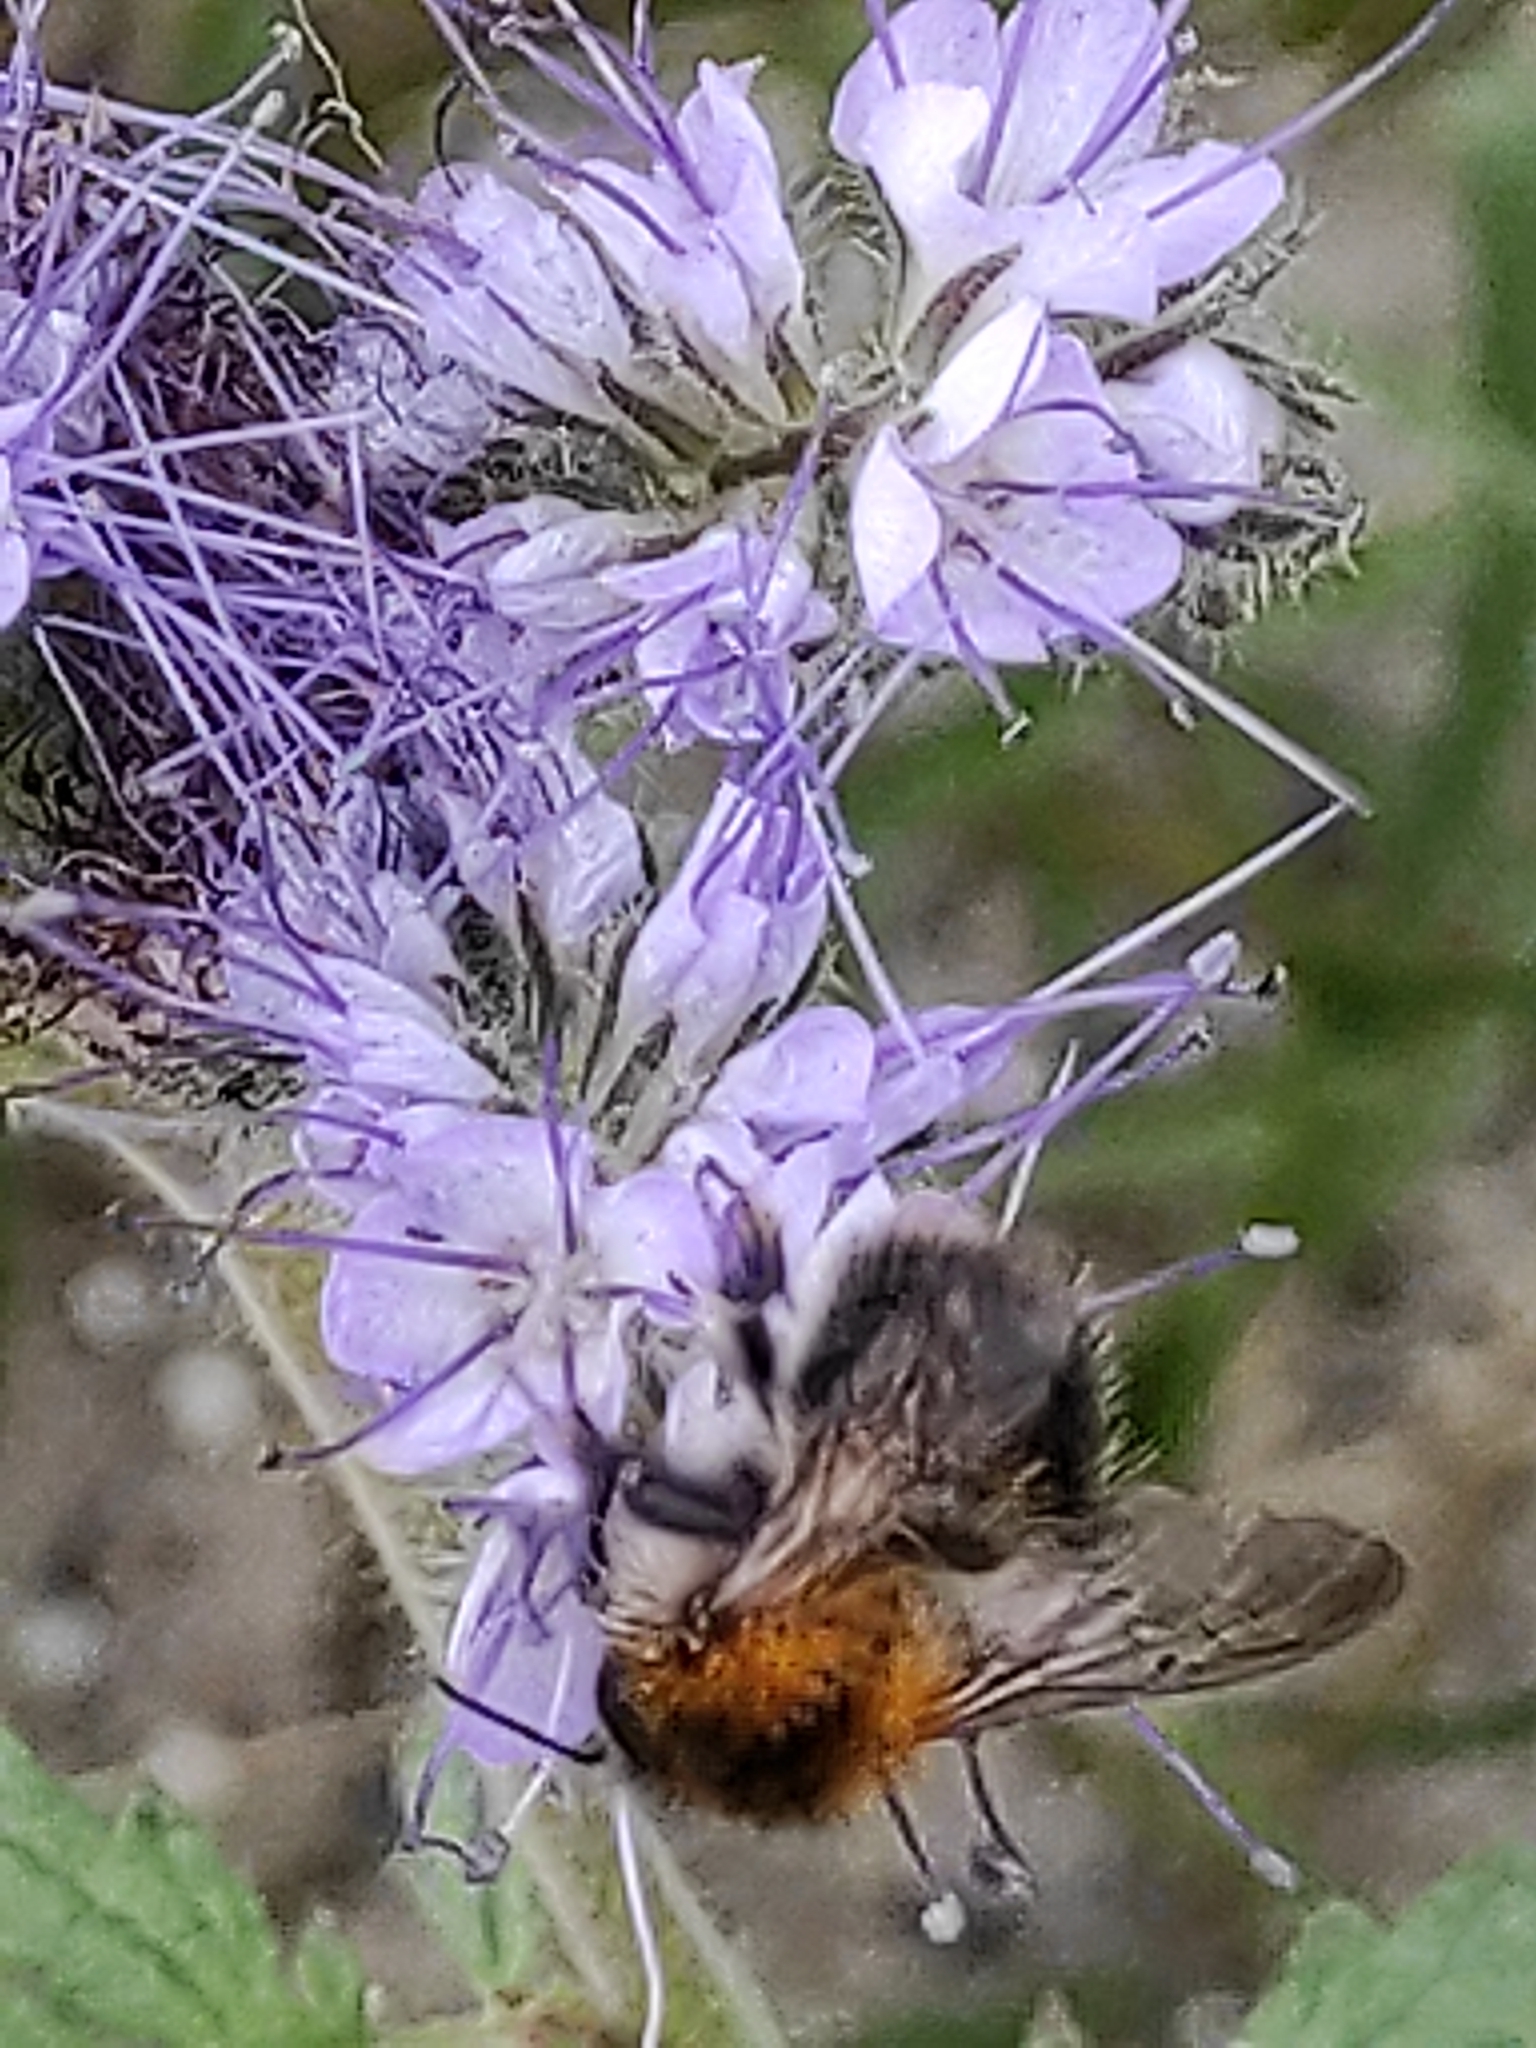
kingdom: Animalia
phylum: Arthropoda
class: Insecta
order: Hymenoptera
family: Apidae
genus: Bombus
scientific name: Bombus pascuorum
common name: Common carder bee
